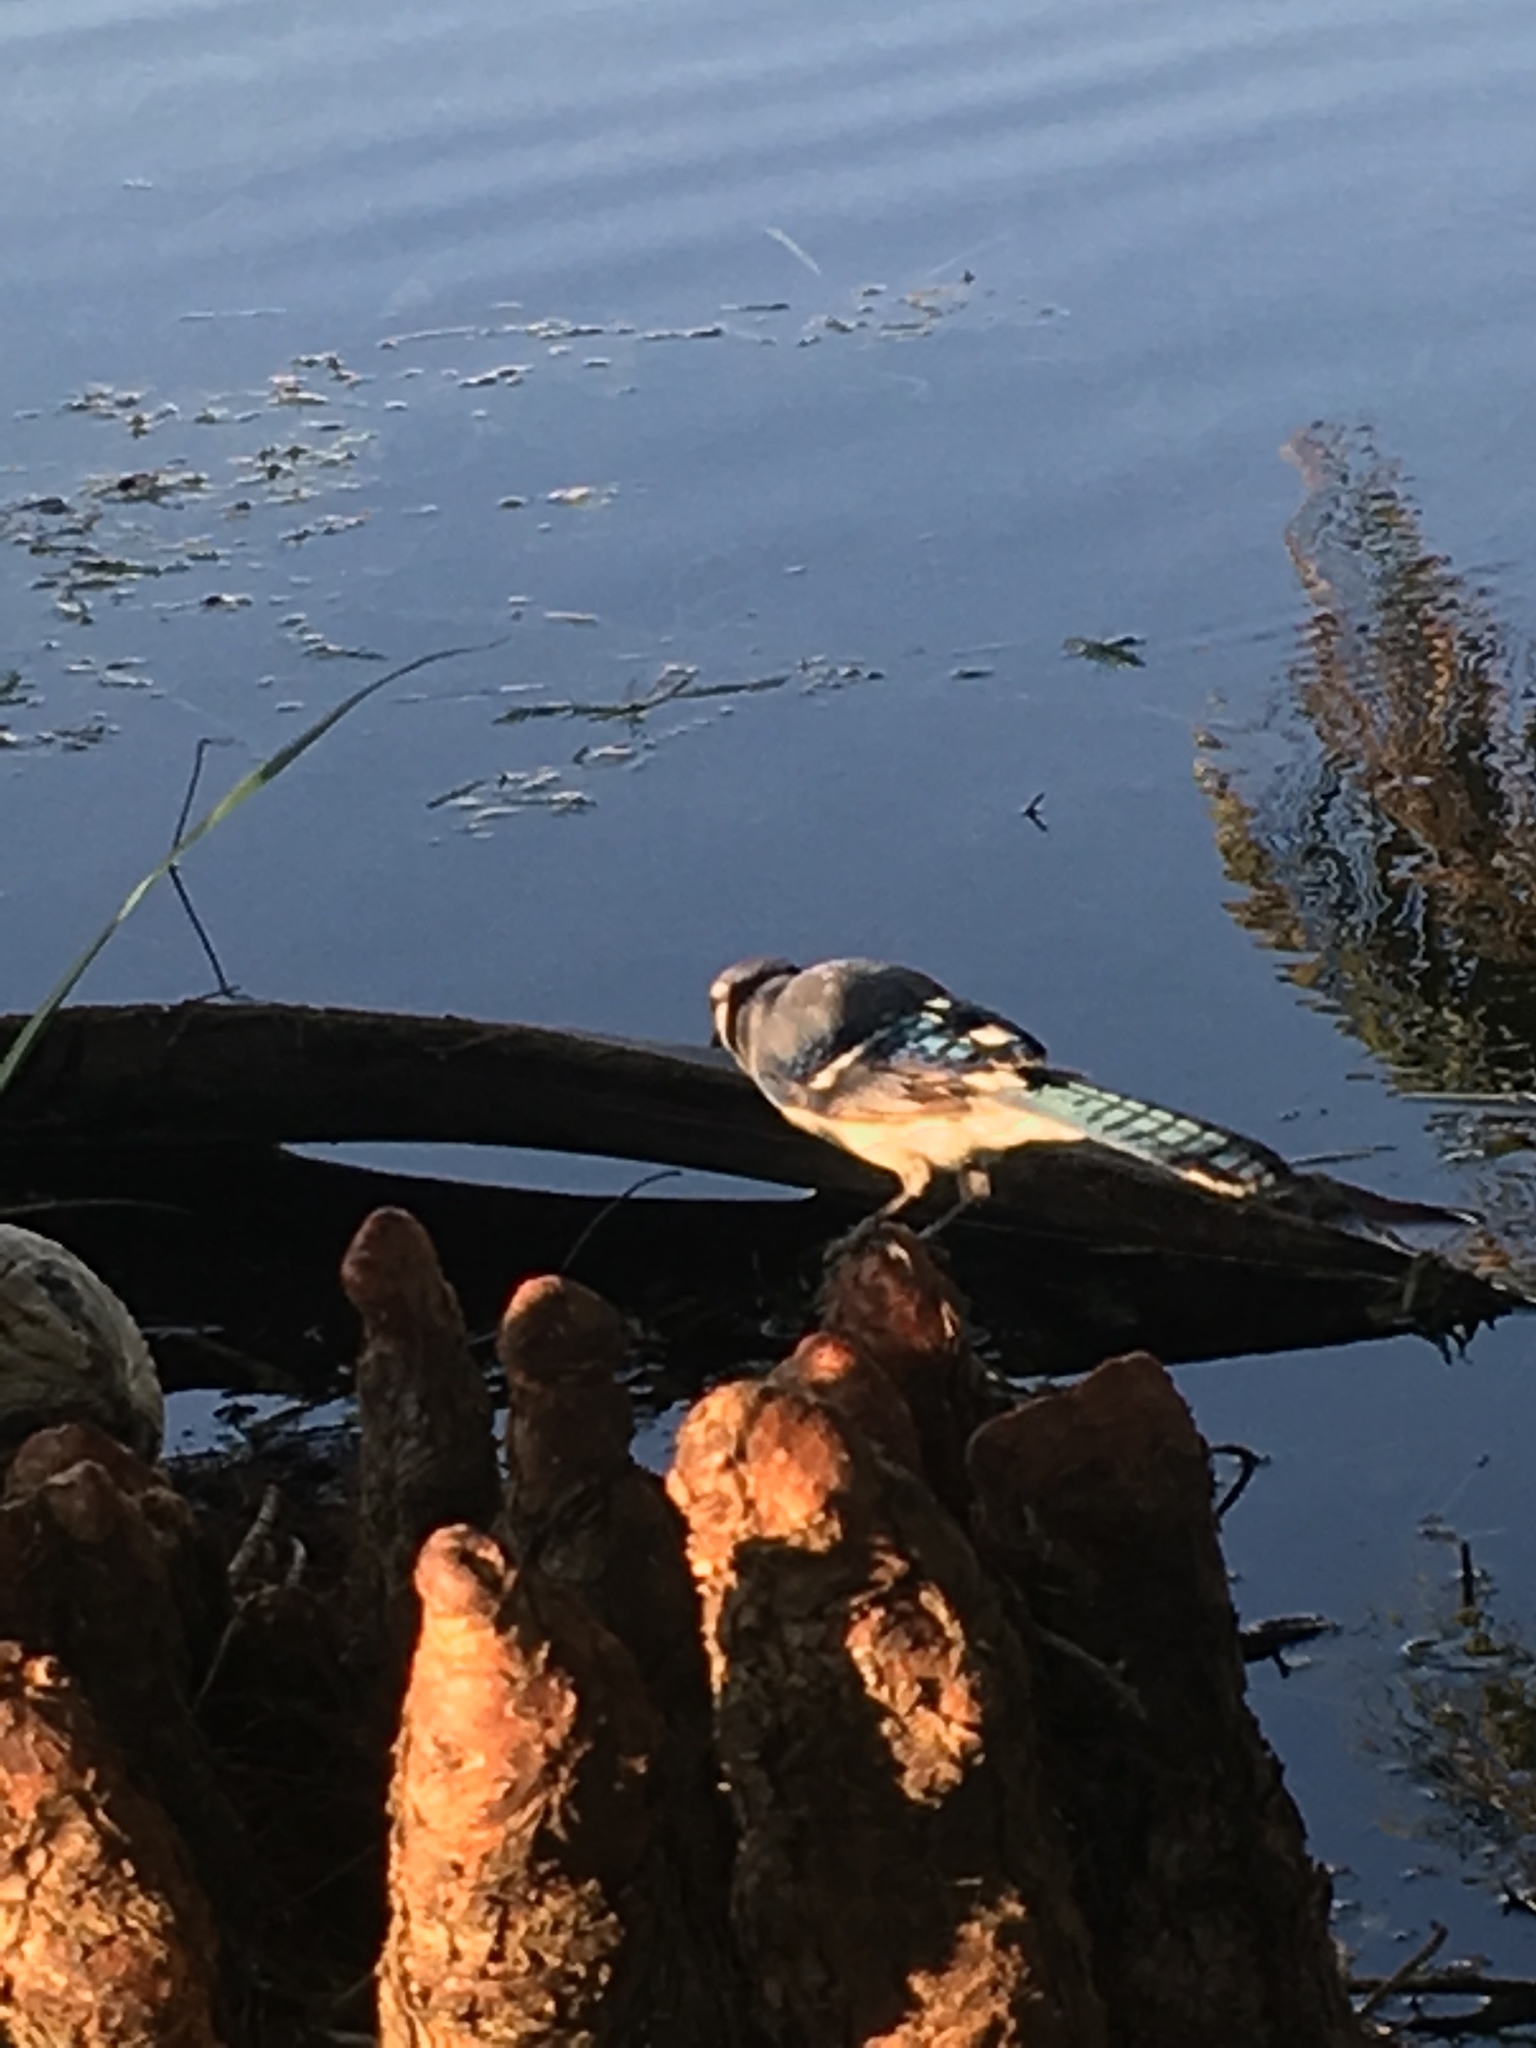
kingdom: Animalia
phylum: Chordata
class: Aves
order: Passeriformes
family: Corvidae
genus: Cyanocitta
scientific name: Cyanocitta cristata
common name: Blue jay
